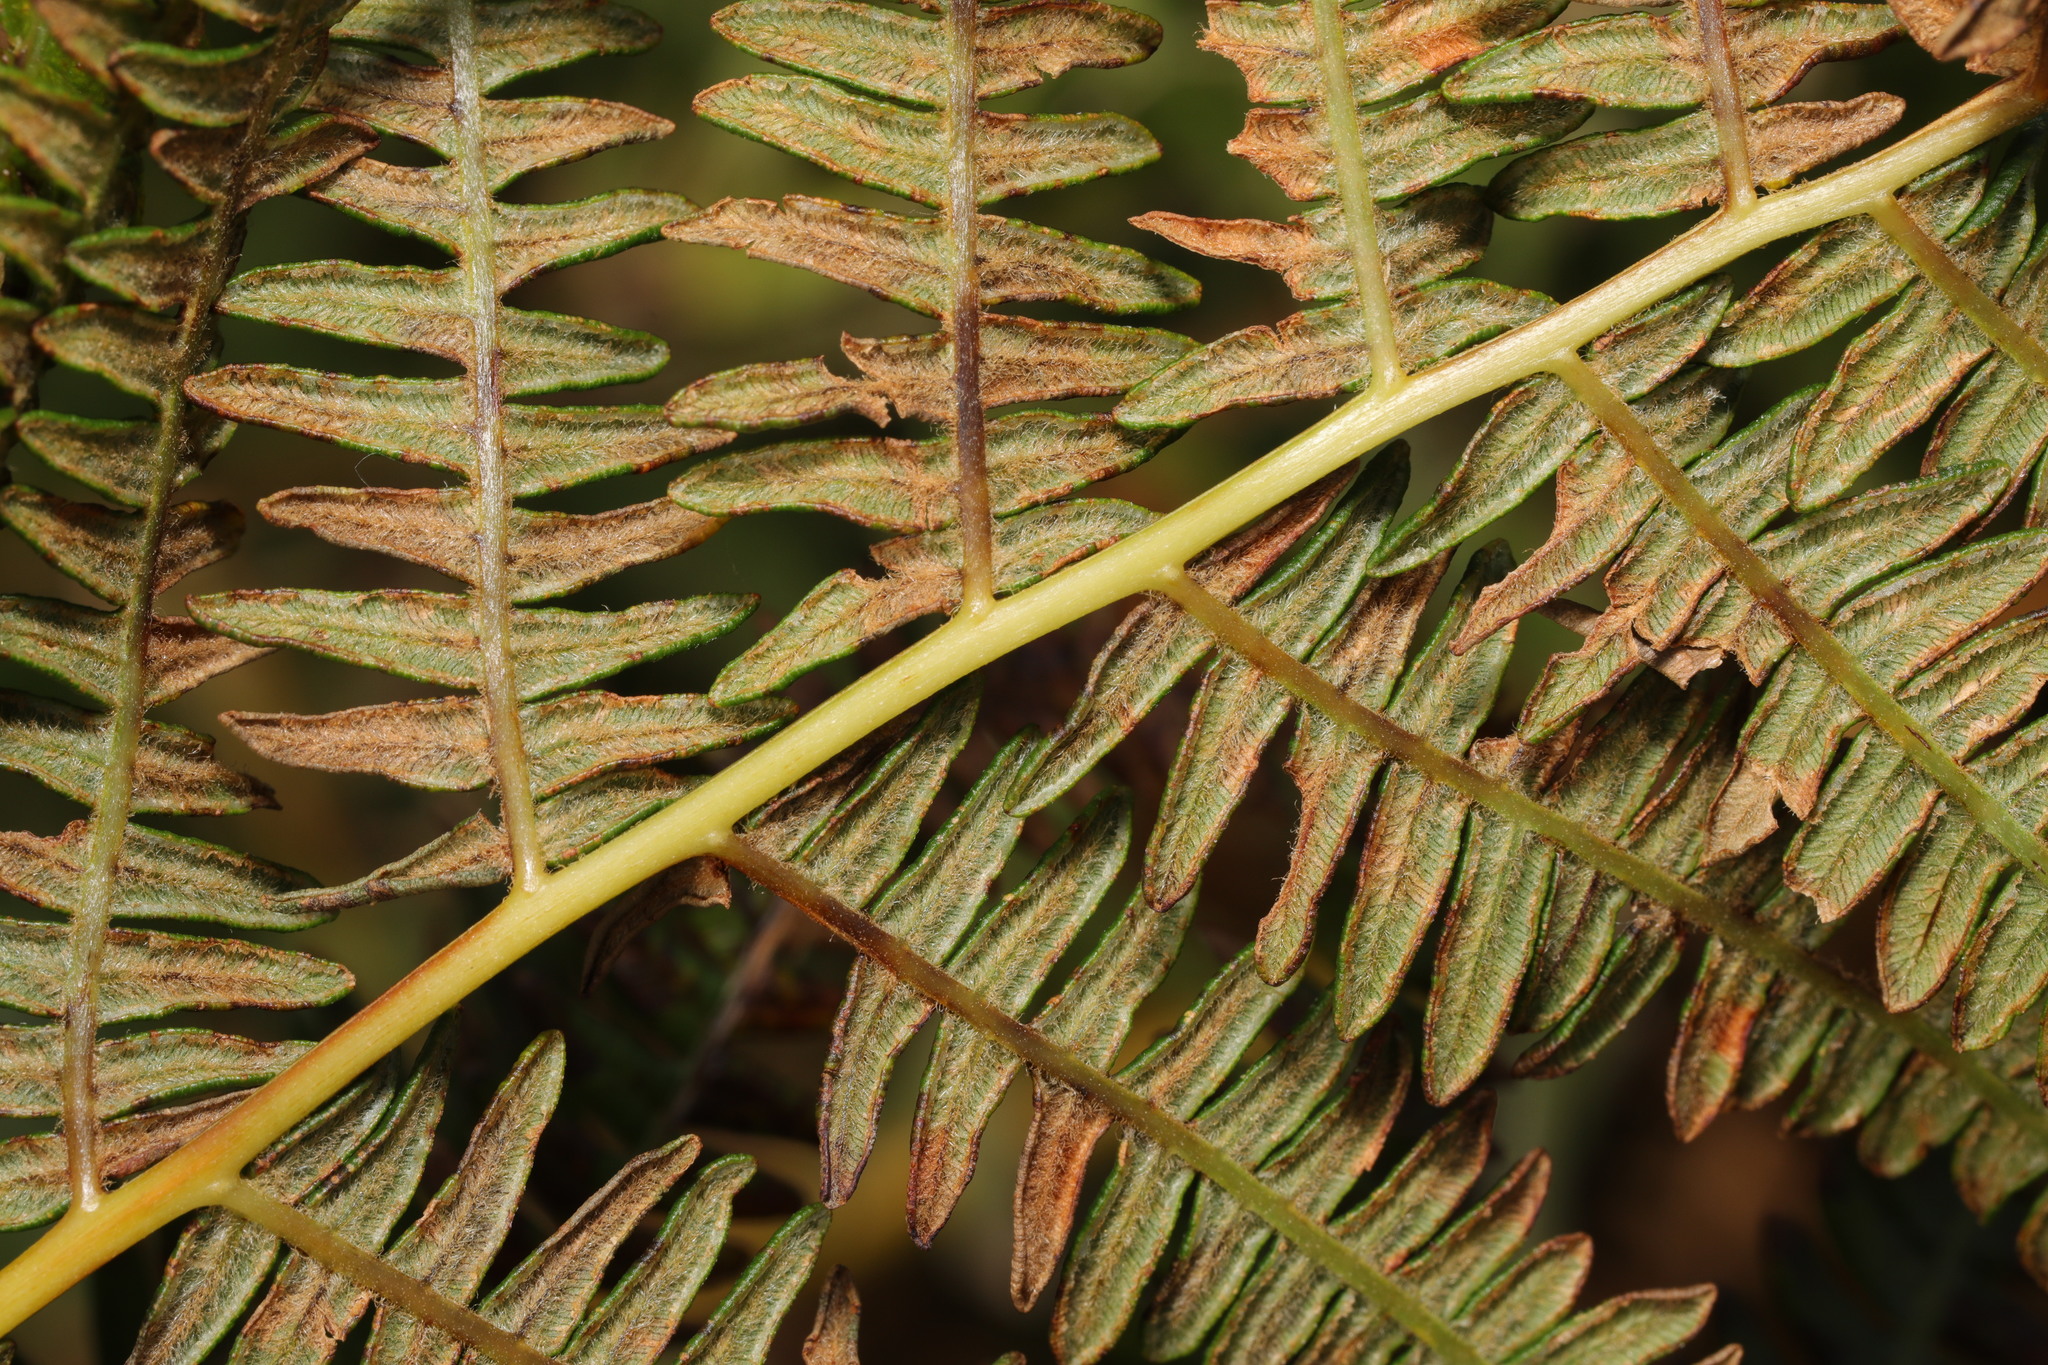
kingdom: Plantae
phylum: Tracheophyta
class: Polypodiopsida
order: Polypodiales
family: Dennstaedtiaceae
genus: Pteridium
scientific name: Pteridium aquilinum
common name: Bracken
